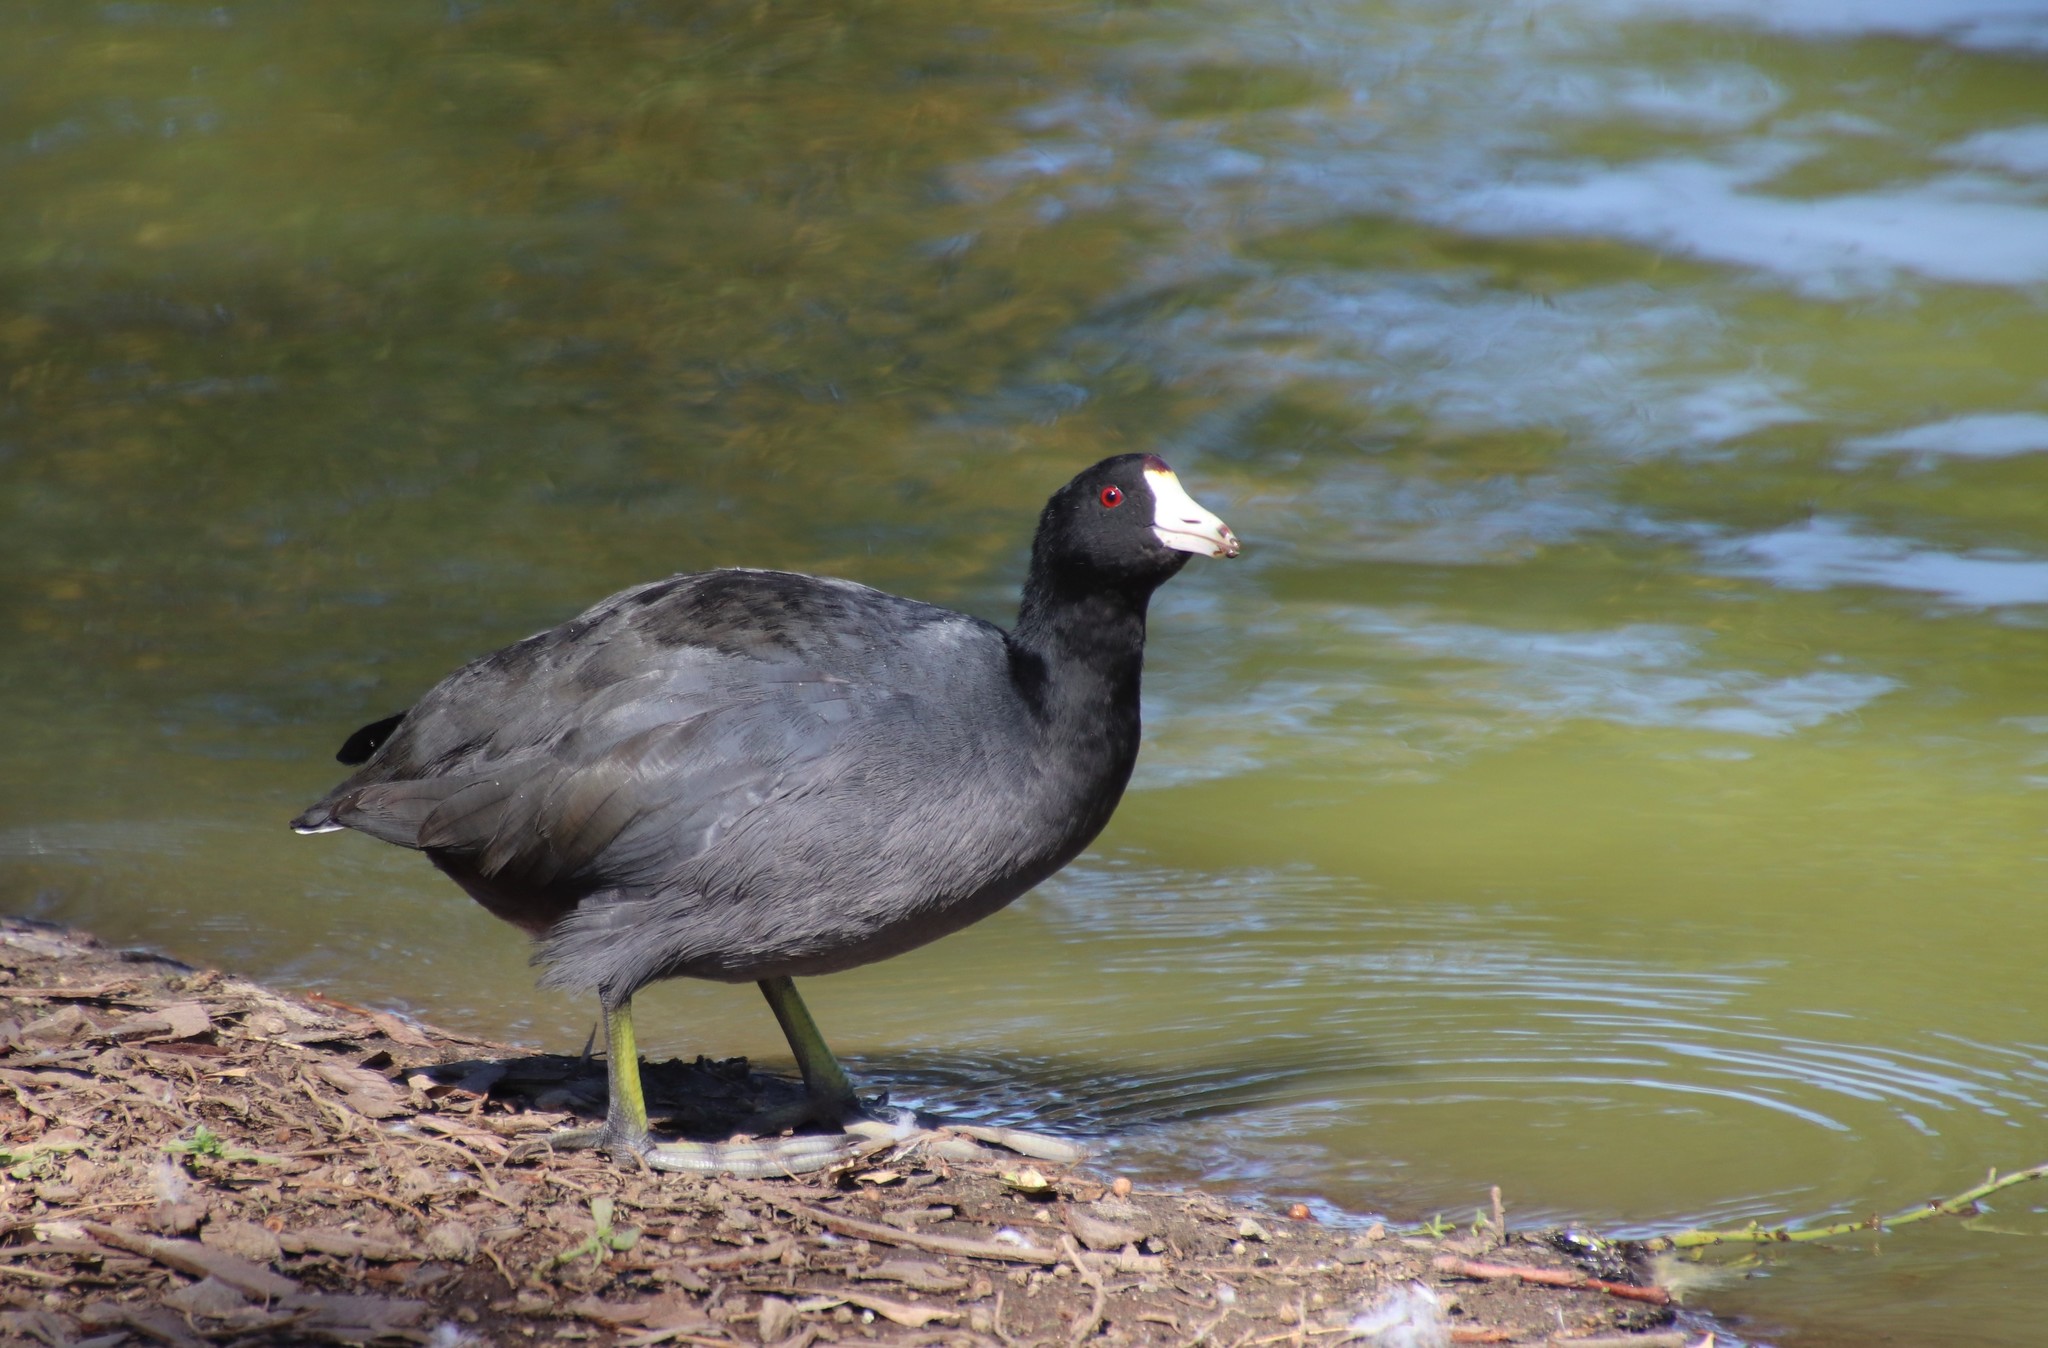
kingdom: Animalia
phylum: Chordata
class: Aves
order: Gruiformes
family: Rallidae
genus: Fulica
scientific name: Fulica americana
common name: American coot
